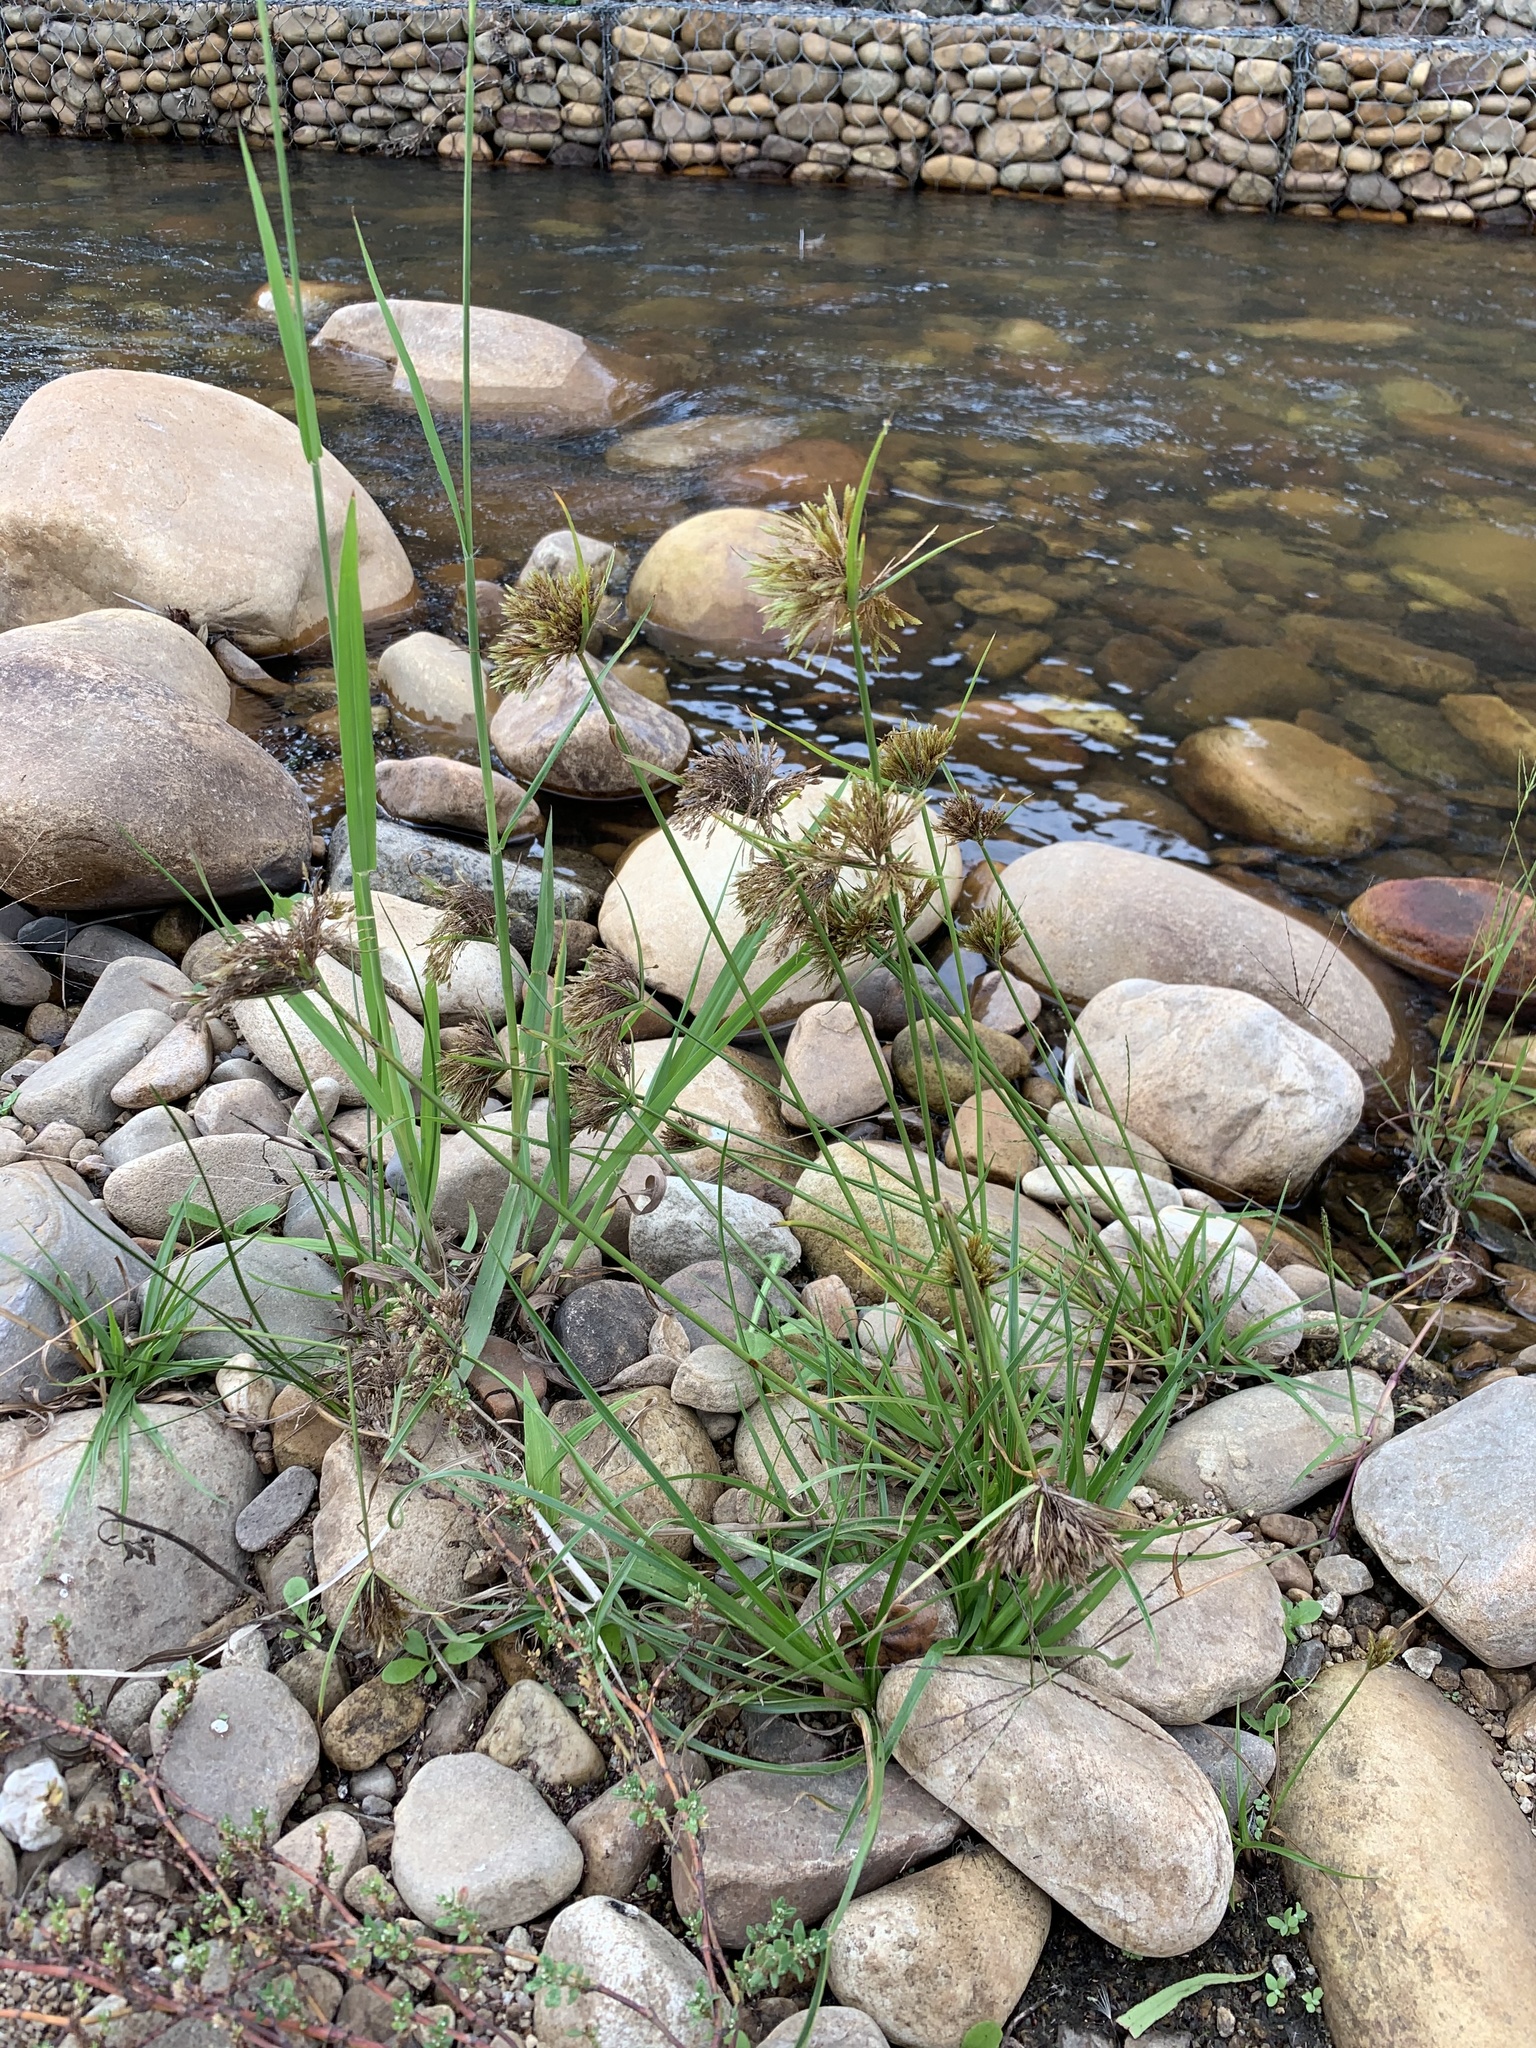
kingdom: Plantae
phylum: Tracheophyta
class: Liliopsida
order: Poales
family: Cyperaceae
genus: Cyperus
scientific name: Cyperus polystachyos
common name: Bunchy flat sedge
